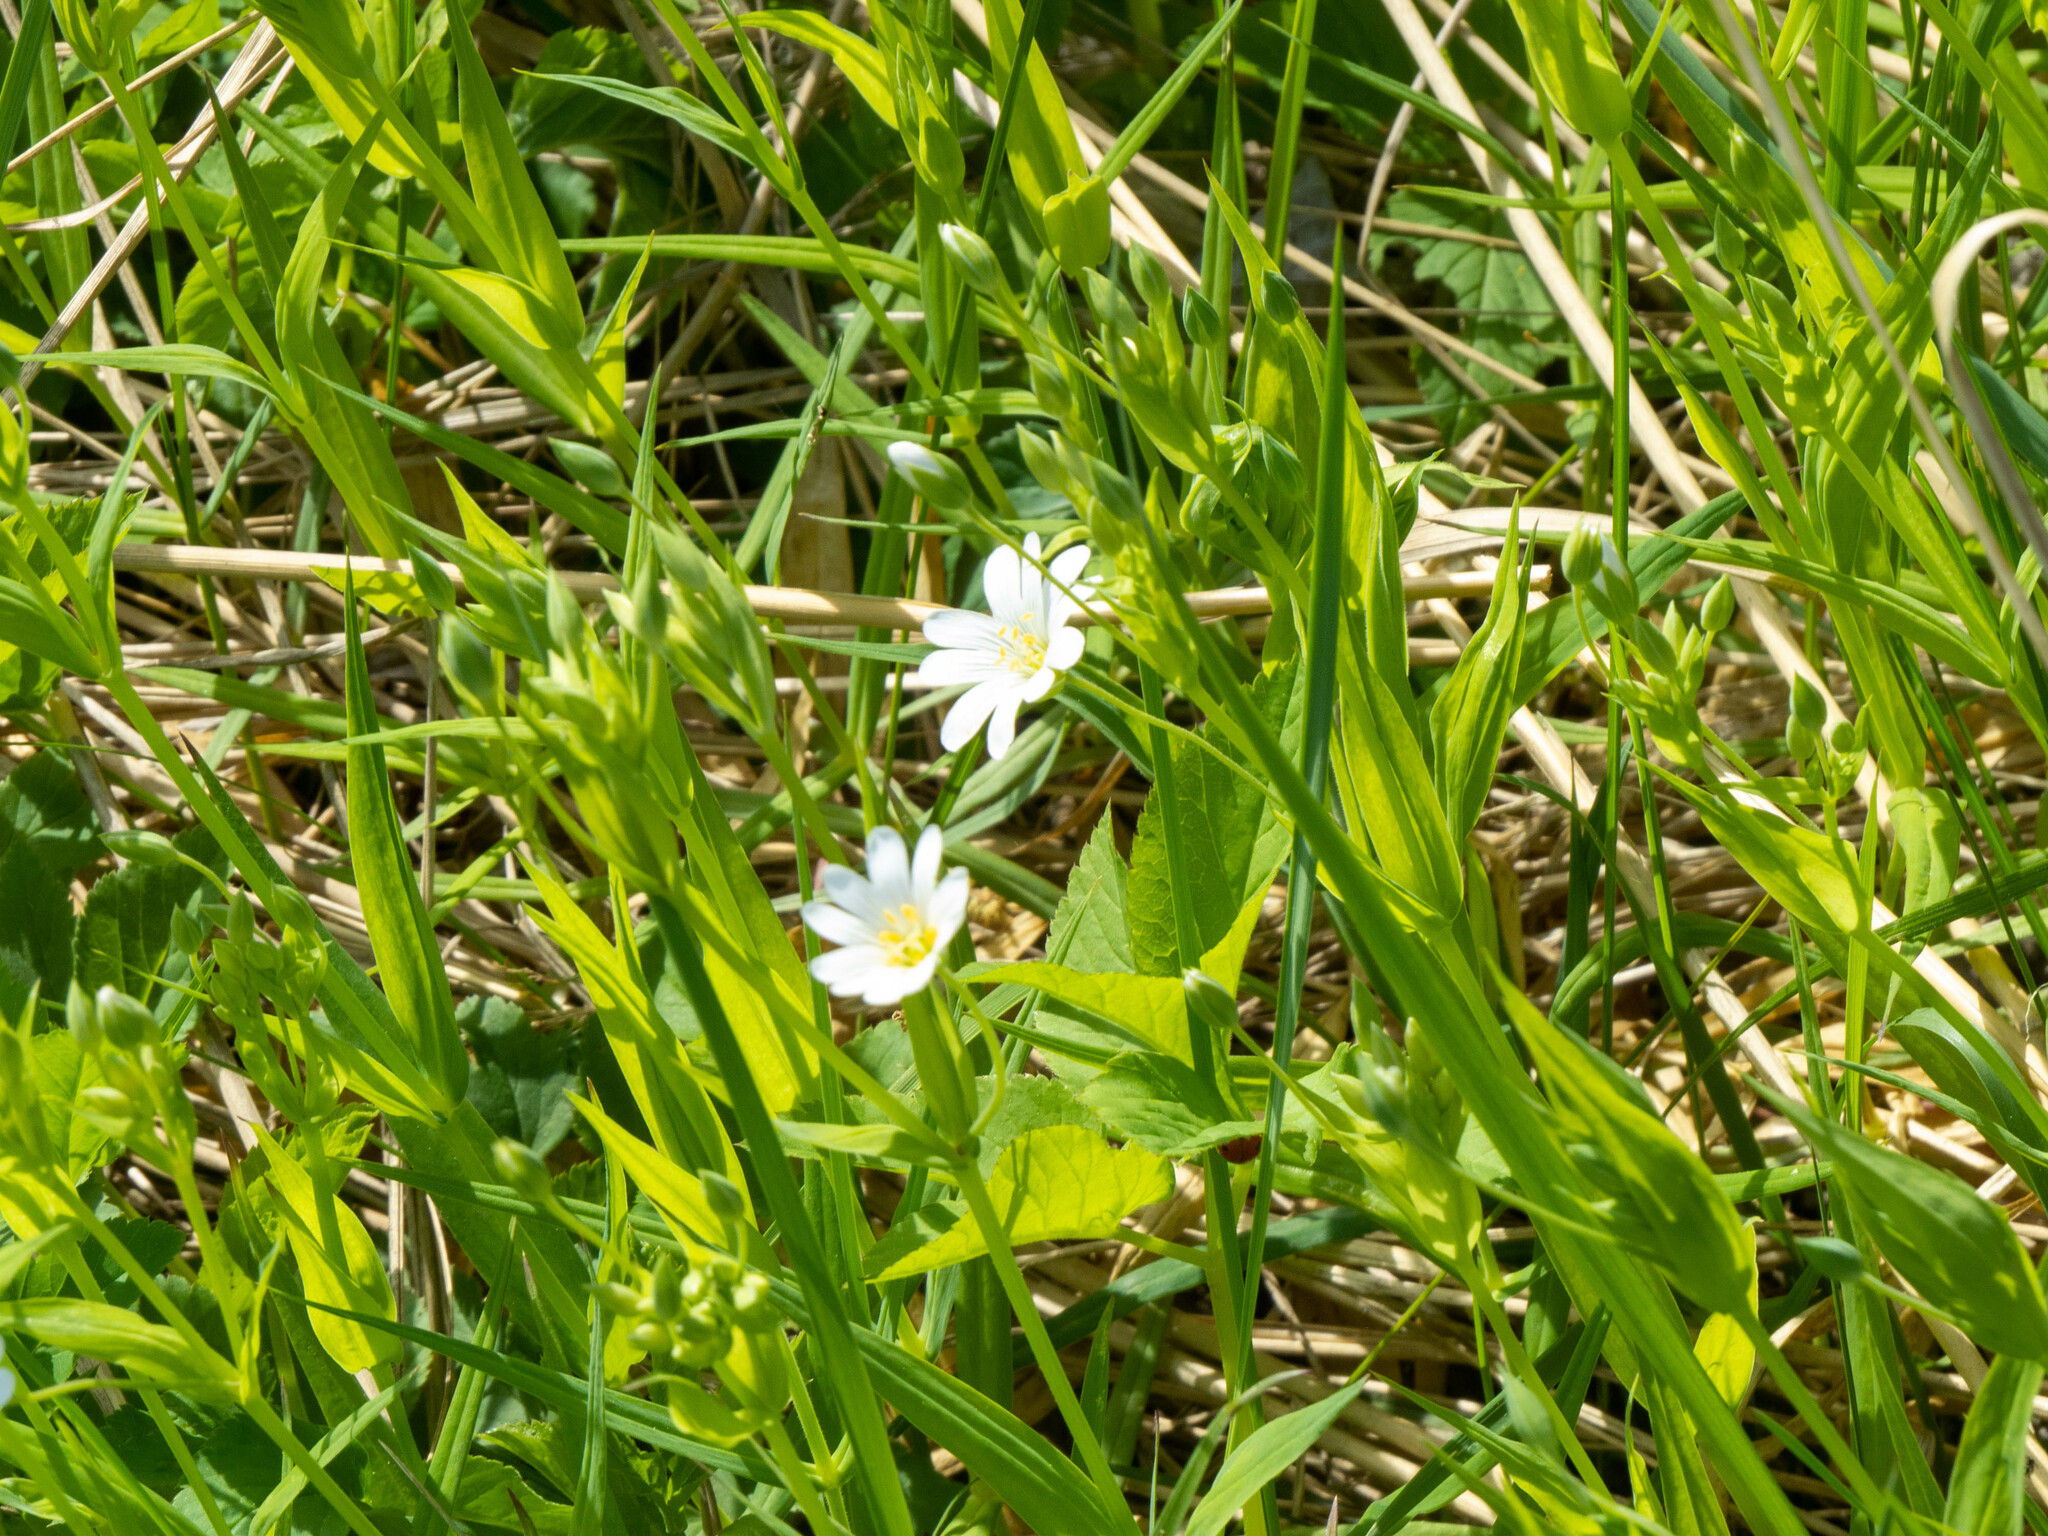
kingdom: Plantae
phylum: Tracheophyta
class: Magnoliopsida
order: Caryophyllales
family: Caryophyllaceae
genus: Rabelera
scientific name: Rabelera holostea
